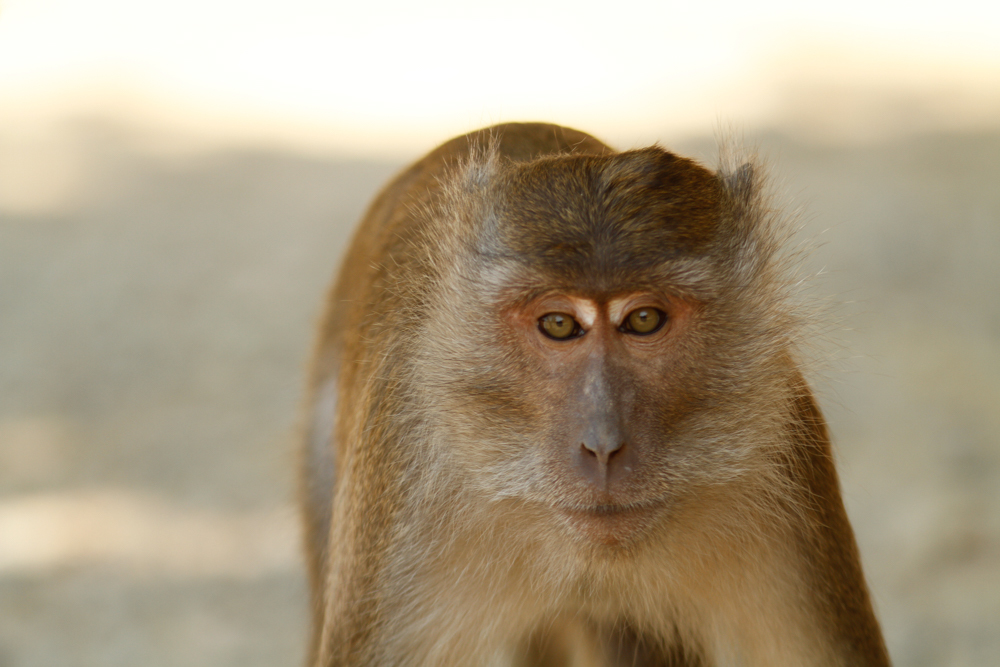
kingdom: Animalia
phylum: Chordata
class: Mammalia
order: Primates
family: Cercopithecidae
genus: Macaca
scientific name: Macaca fascicularis
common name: Crab-eating macaque
